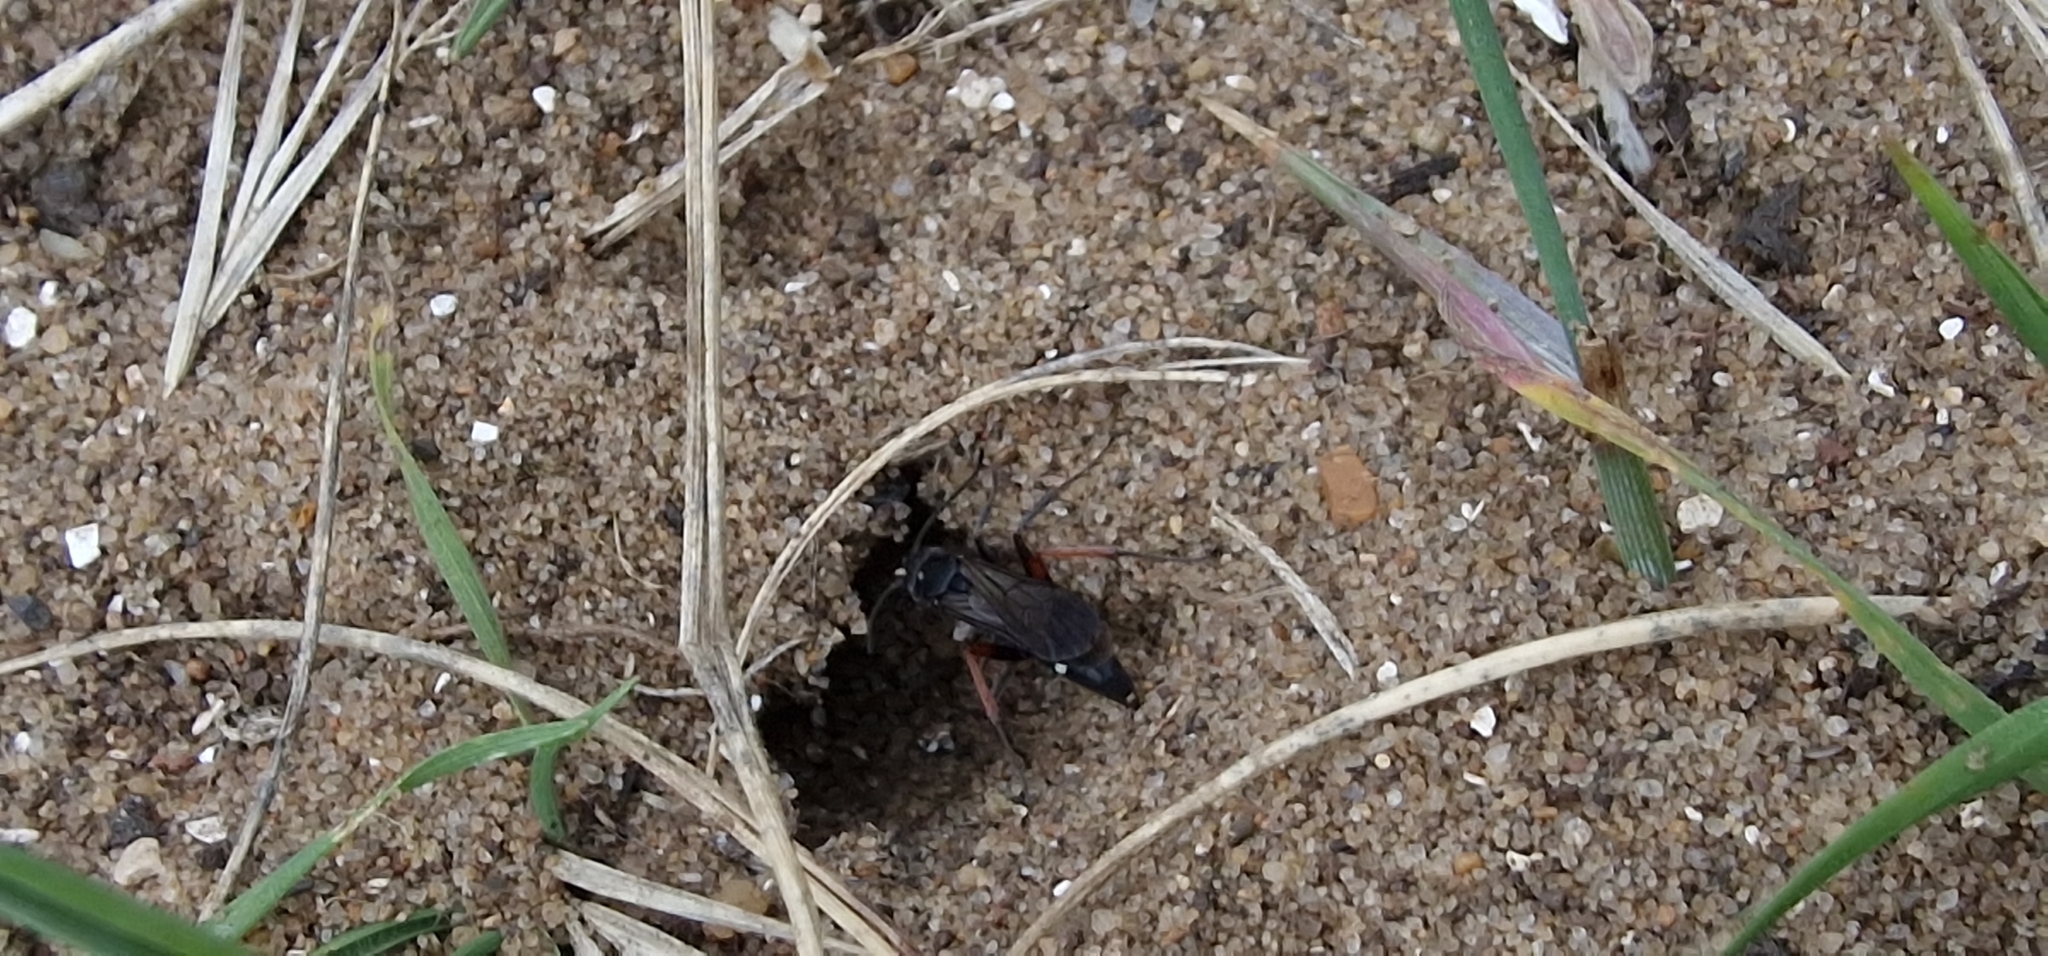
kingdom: Animalia
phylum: Arthropoda
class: Insecta
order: Hymenoptera
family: Pompilidae
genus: Episyron
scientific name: Episyron rufipes
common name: Red legged spider wasp
